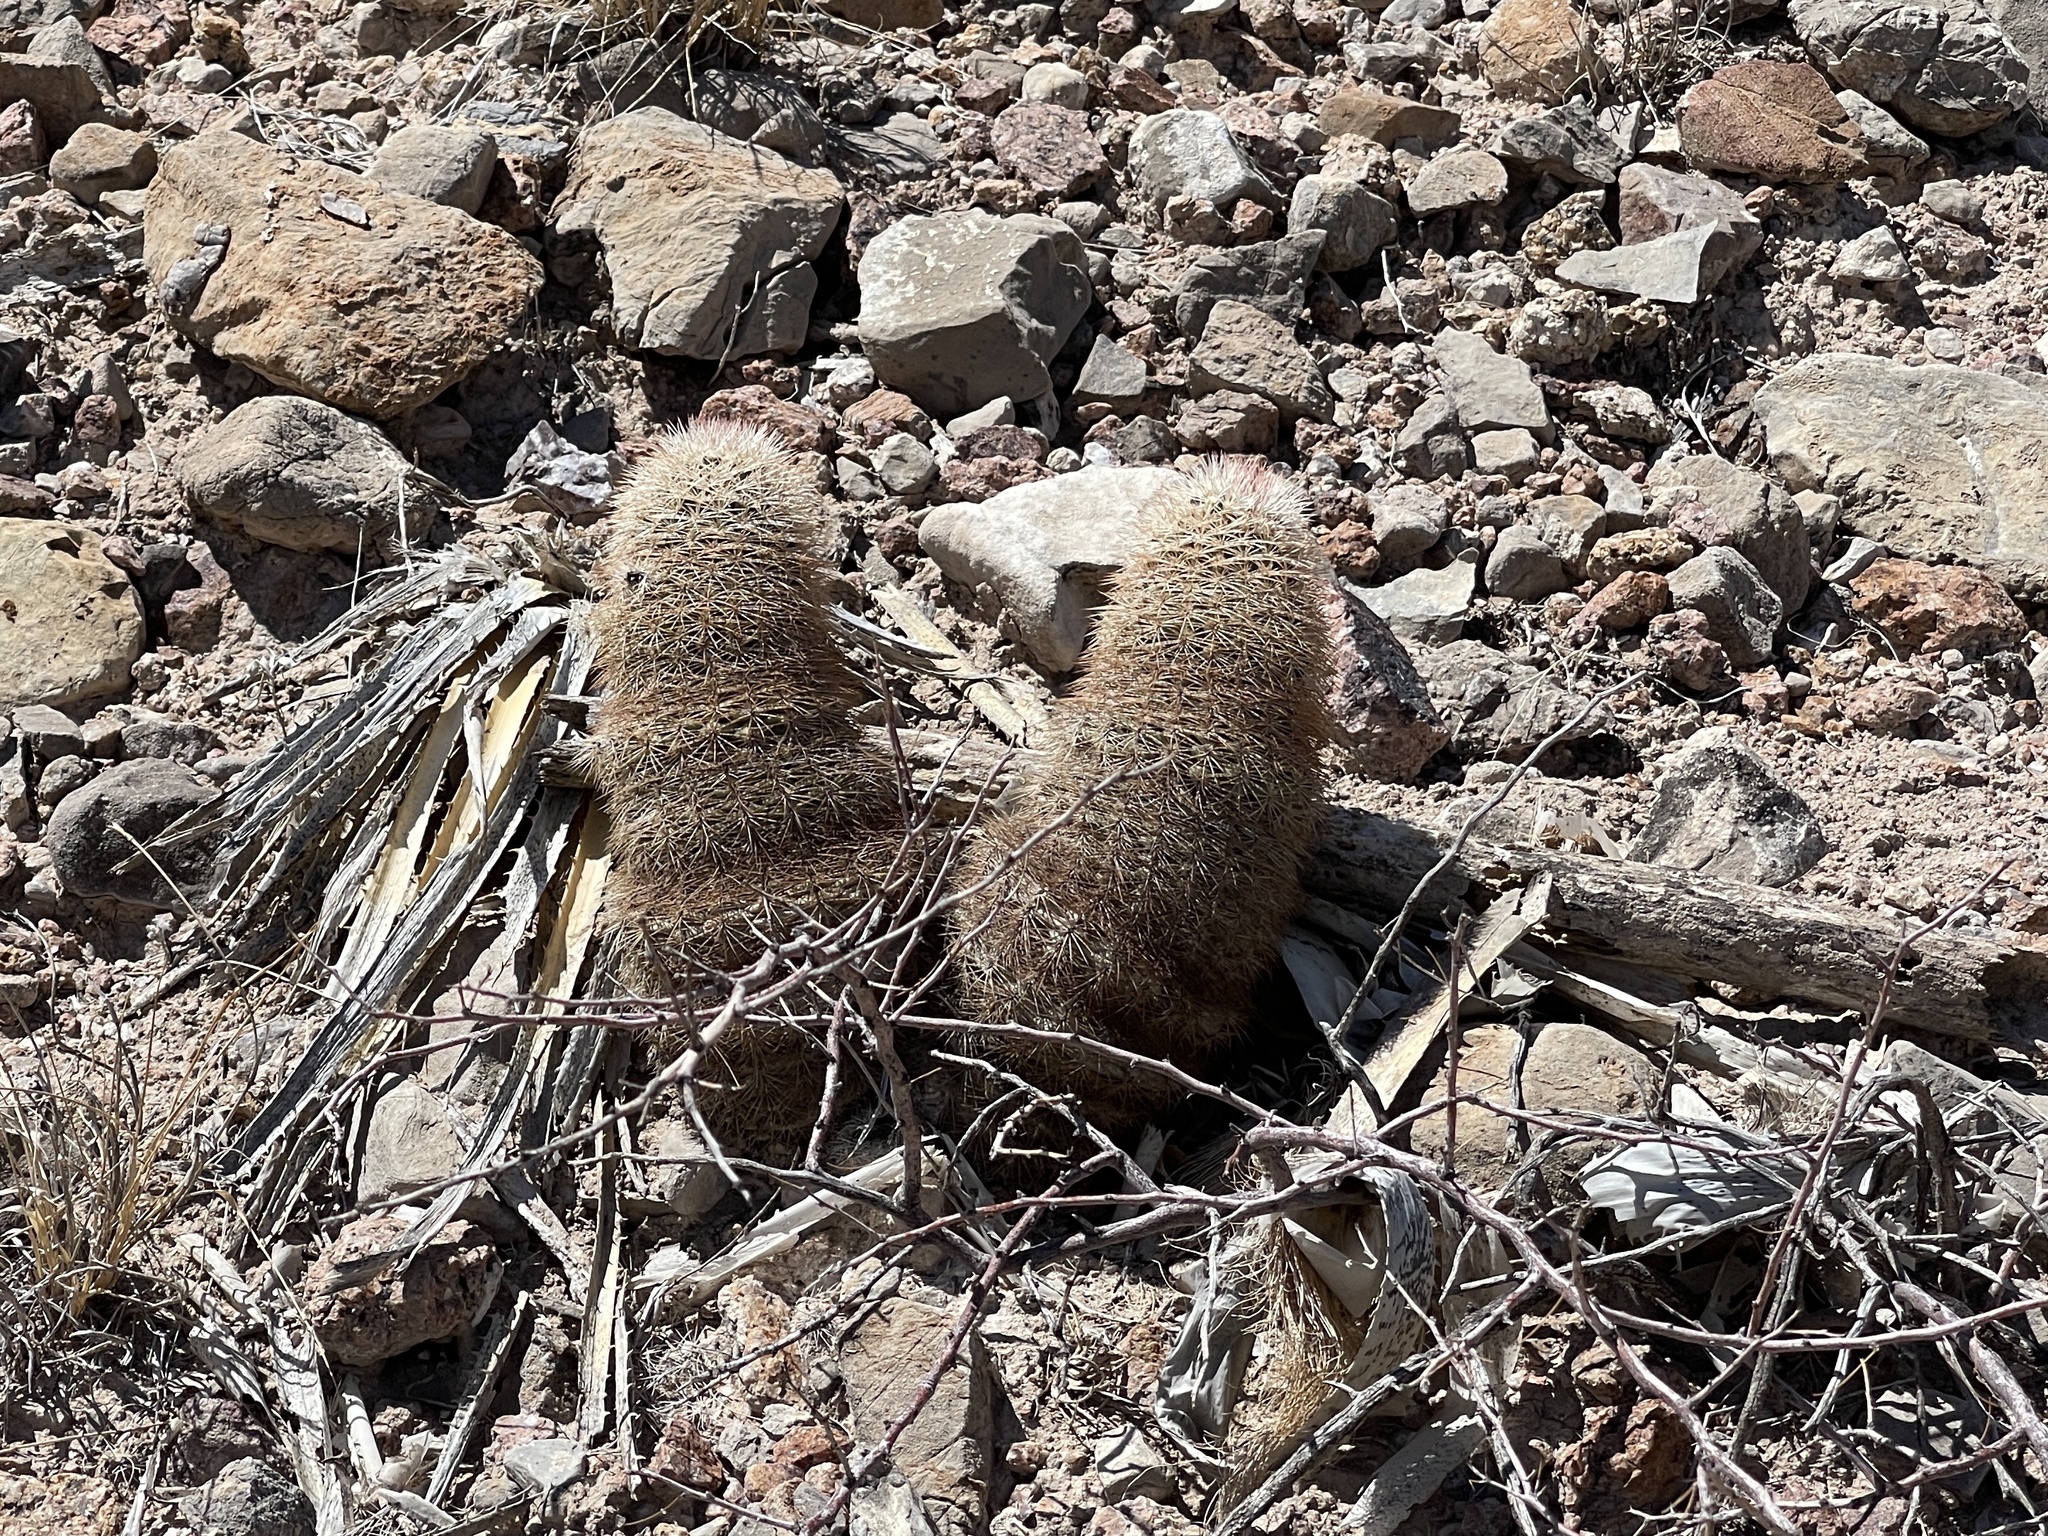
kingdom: Plantae
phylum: Tracheophyta
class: Magnoliopsida
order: Caryophyllales
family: Cactaceae
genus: Echinocereus
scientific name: Echinocereus dasyacanthus
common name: Spiny hedgehog cactus
